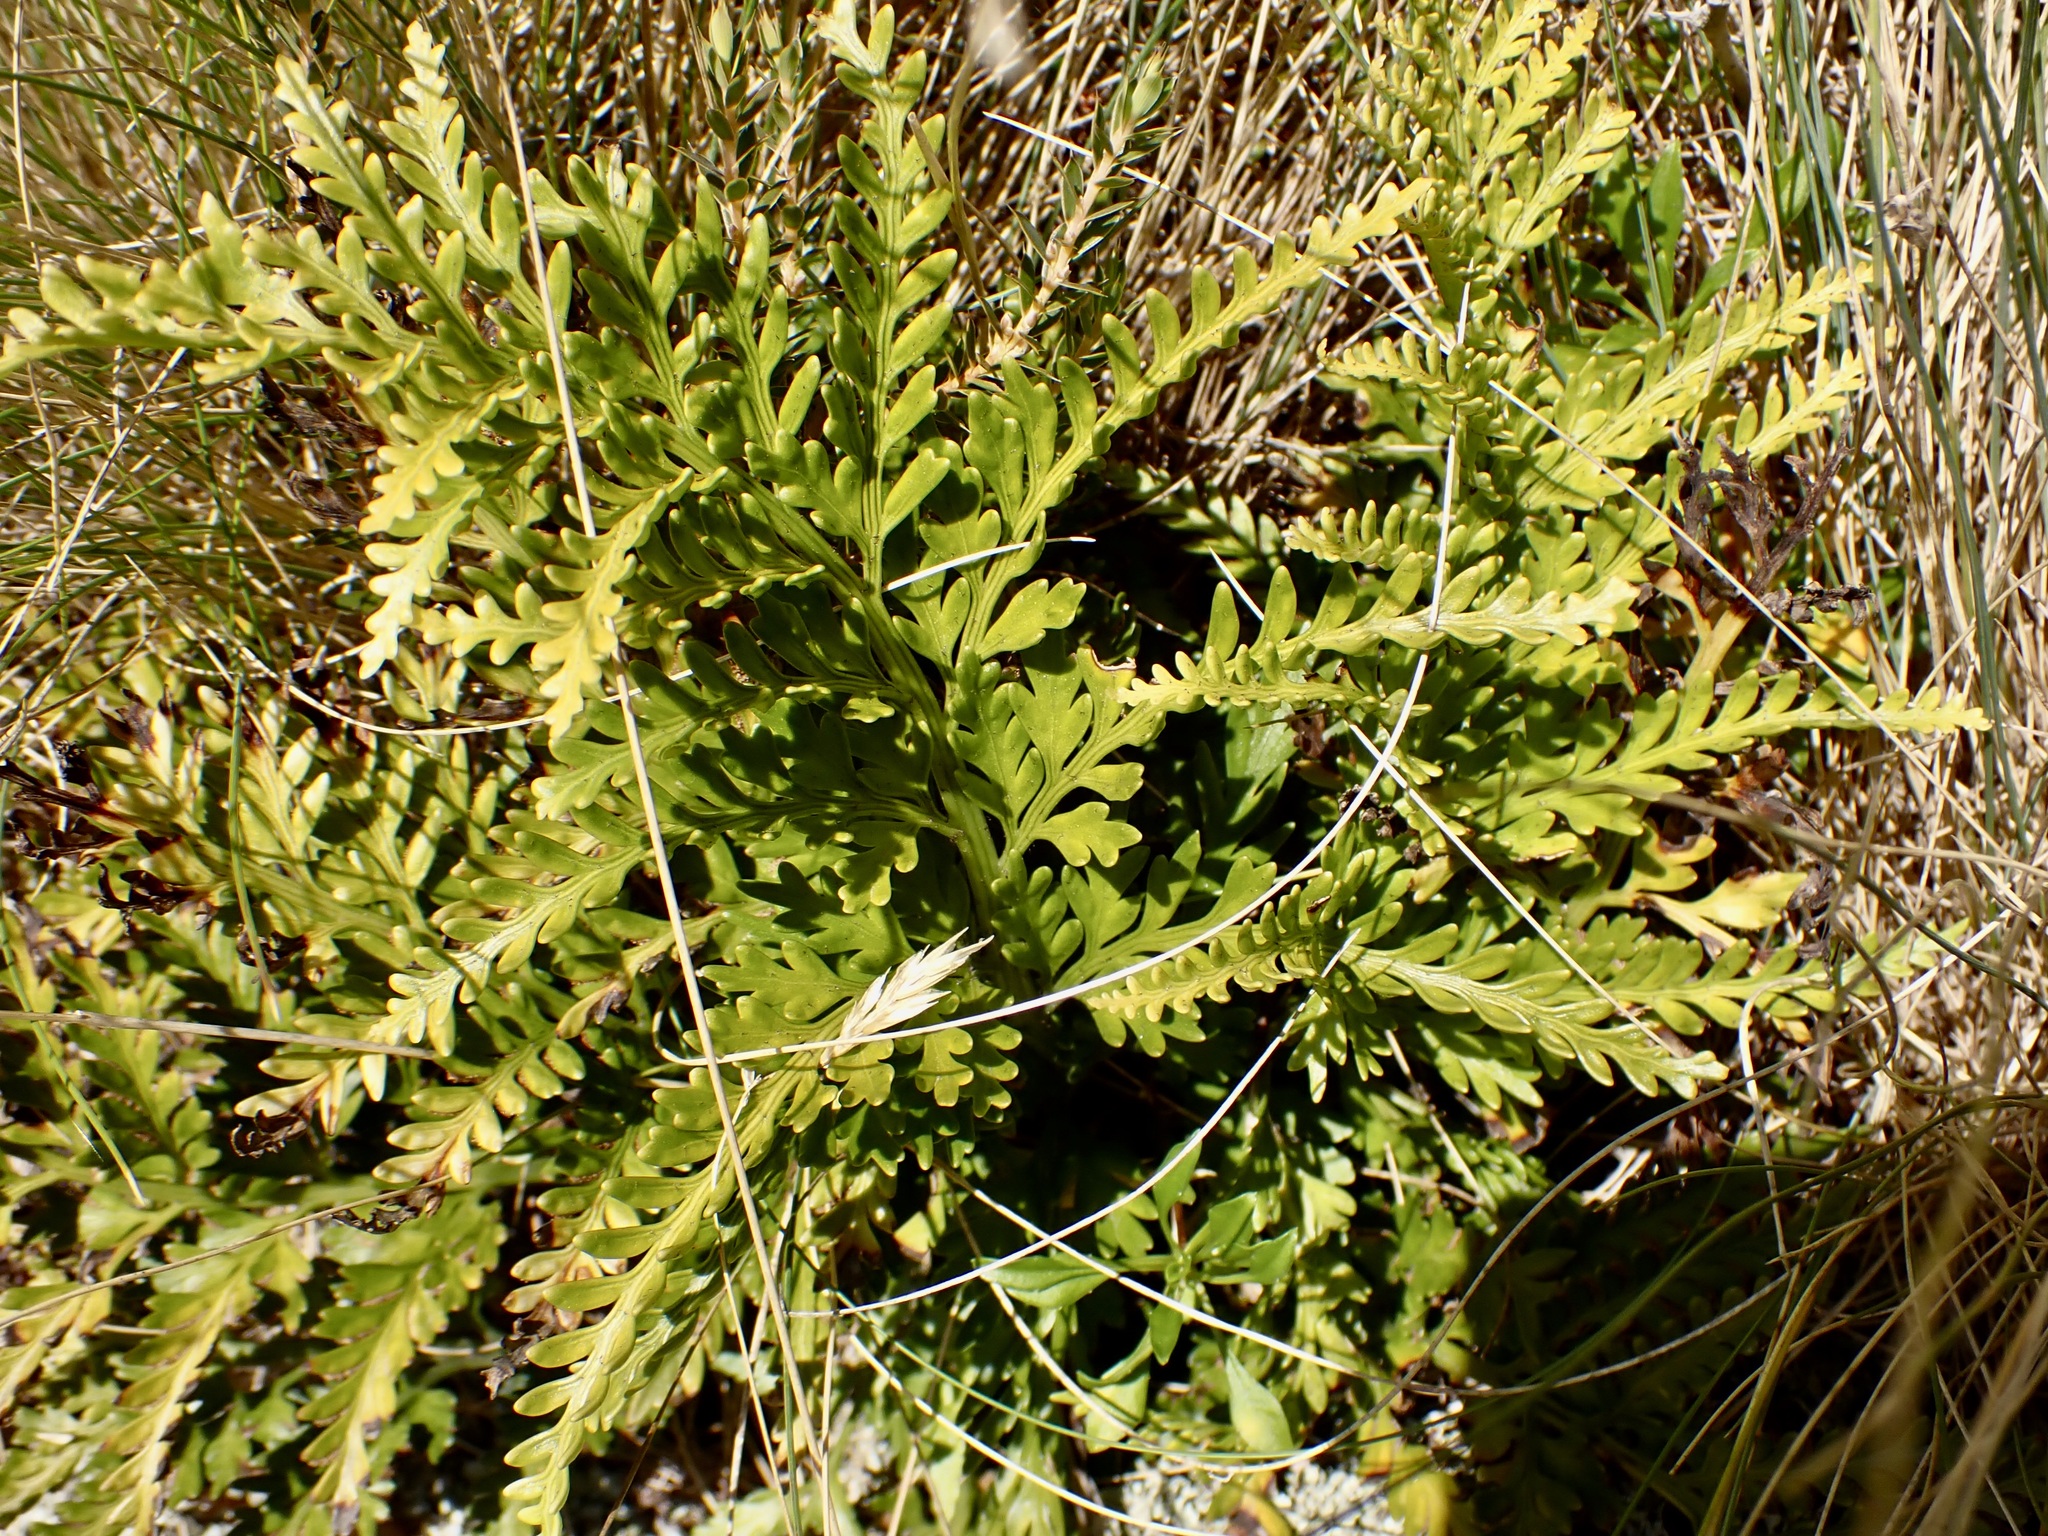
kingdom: Plantae
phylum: Tracheophyta
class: Polypodiopsida
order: Polypodiales
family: Aspleniaceae
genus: Asplenium
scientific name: Asplenium appendiculatum
